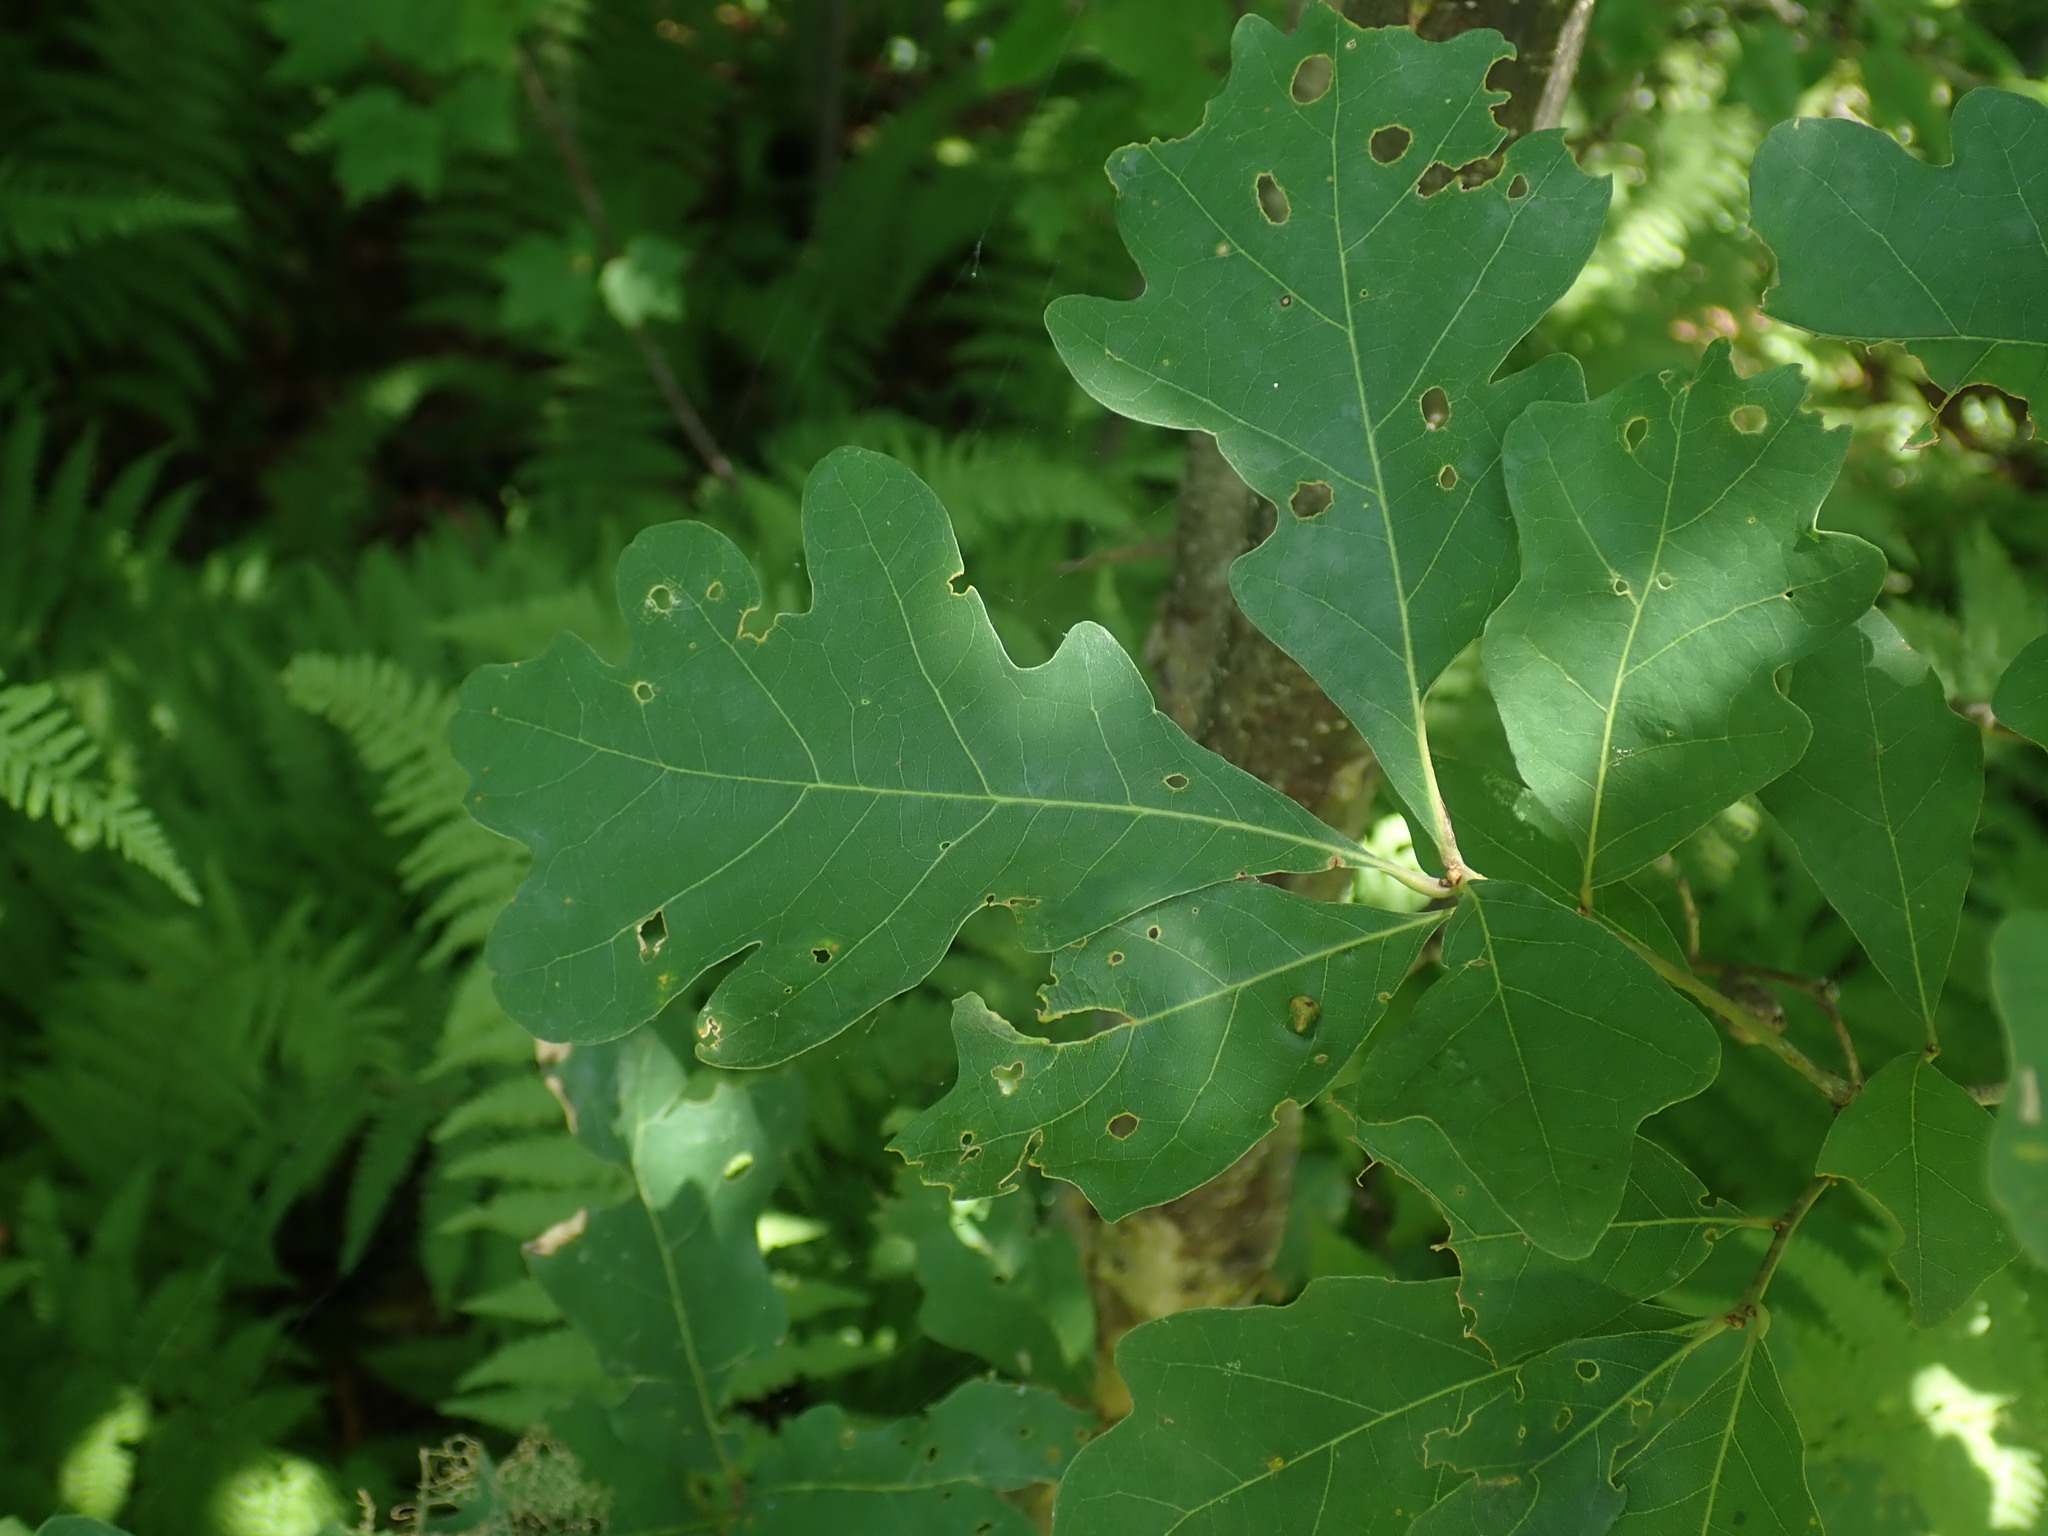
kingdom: Plantae
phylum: Tracheophyta
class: Magnoliopsida
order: Fagales
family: Fagaceae
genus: Quercus
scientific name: Quercus alba
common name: White oak
